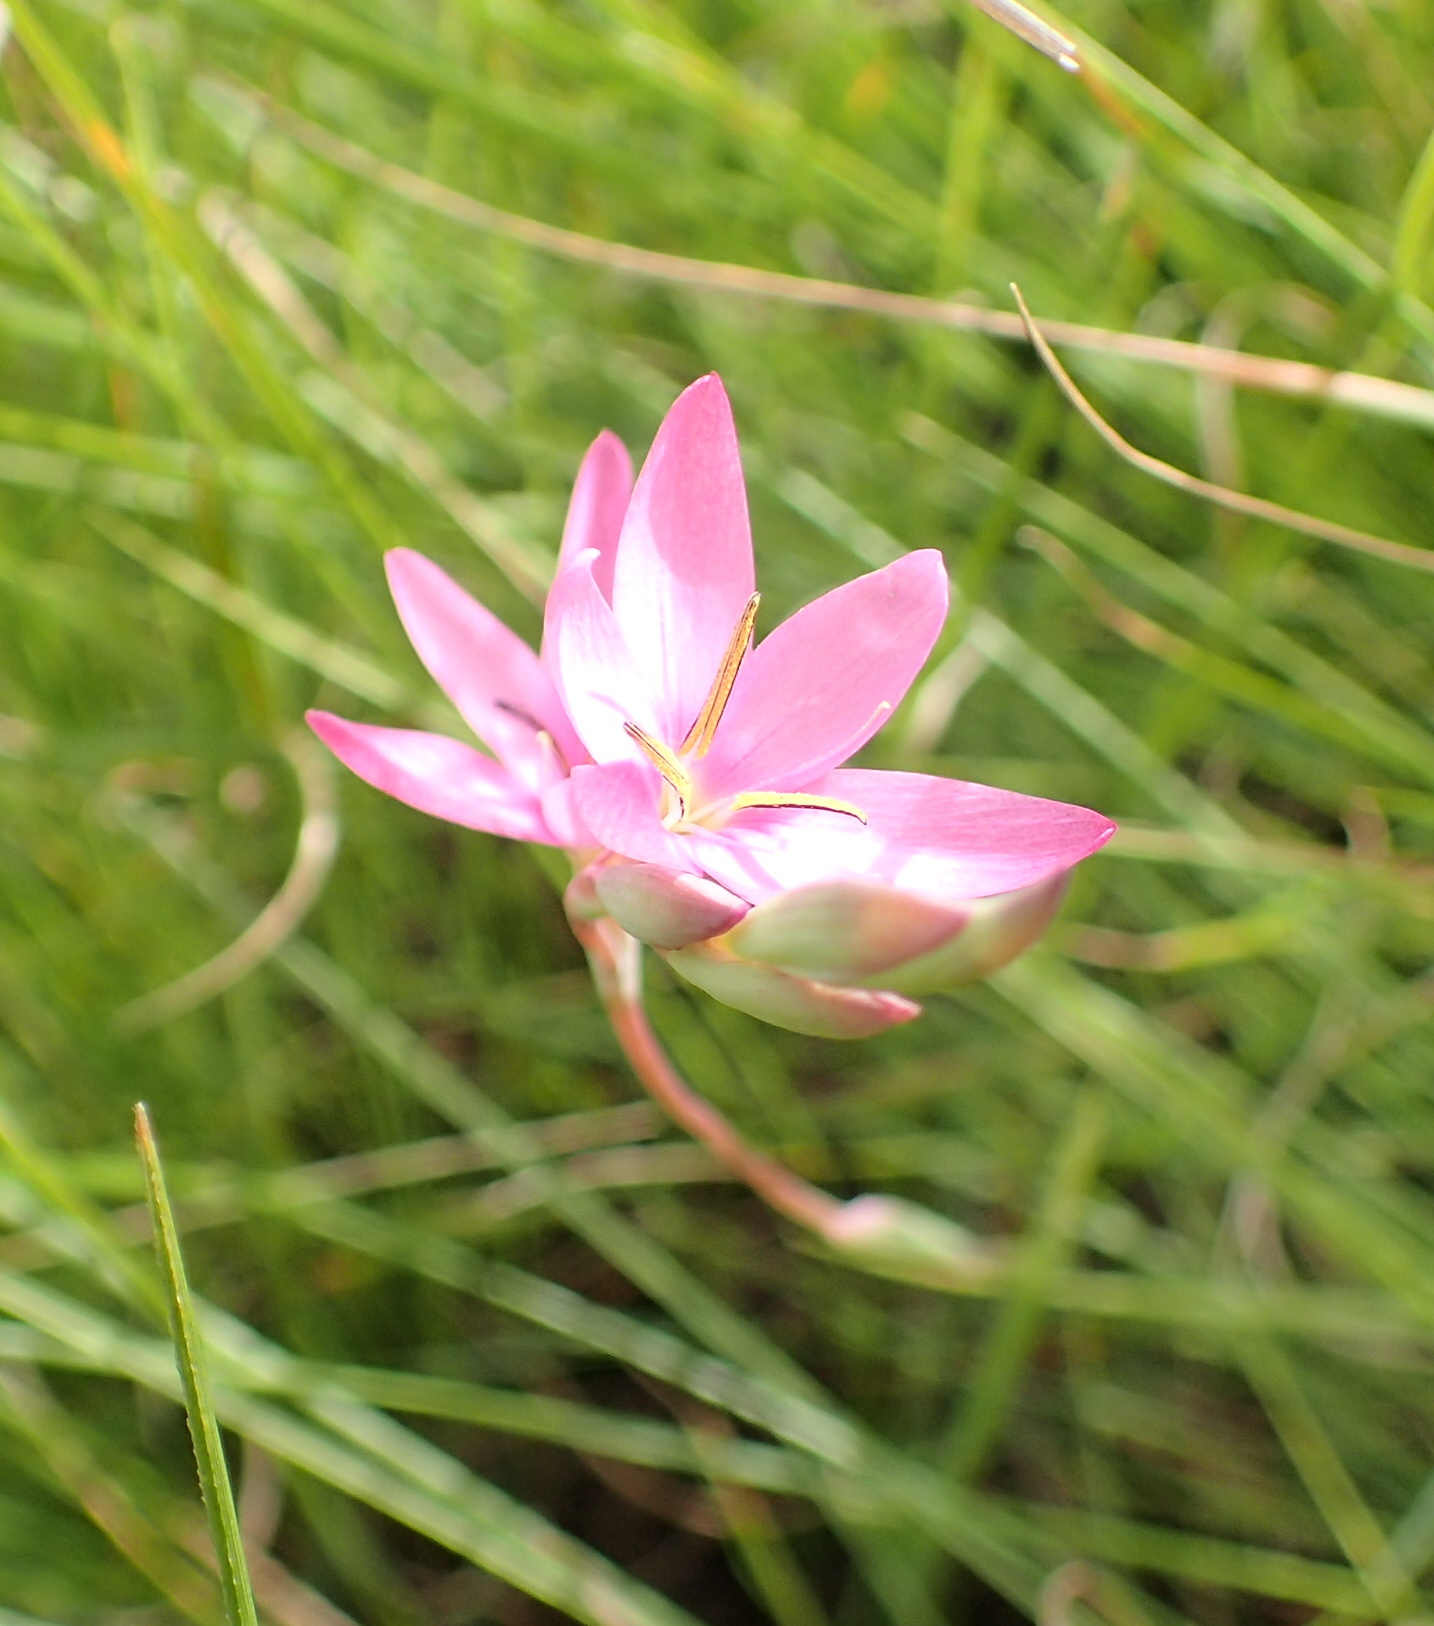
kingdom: Plantae
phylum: Tracheophyta
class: Liliopsida
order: Asparagales
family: Iridaceae
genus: Hesperantha
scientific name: Hesperantha baurii
